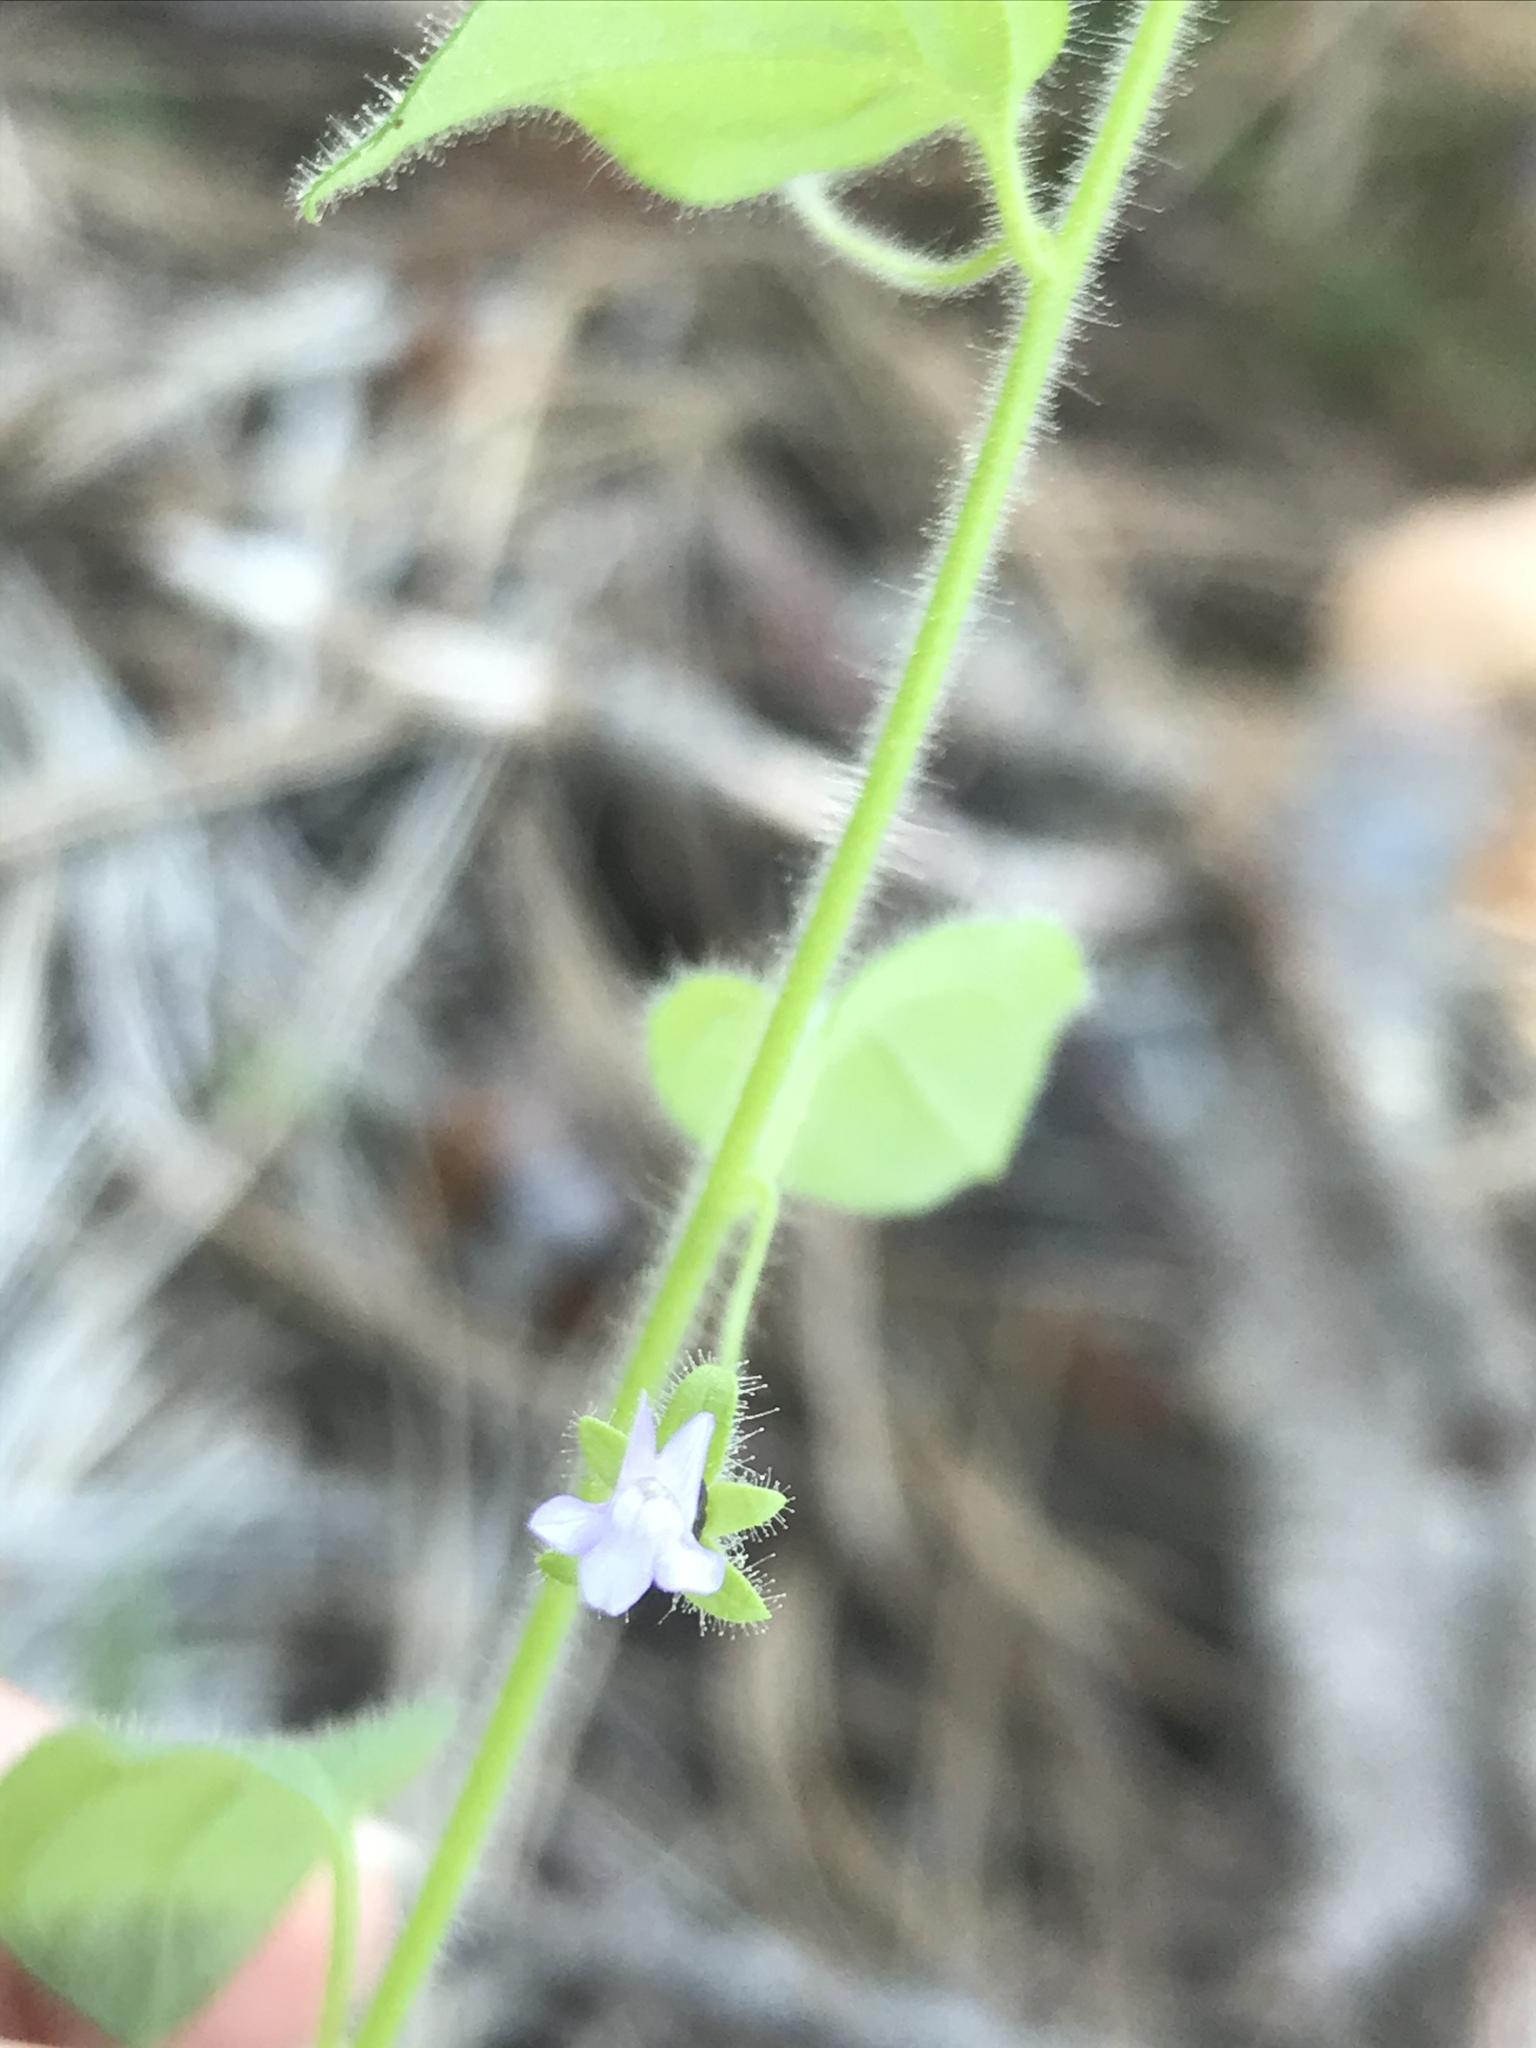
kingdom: Plantae
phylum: Tracheophyta
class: Magnoliopsida
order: Lamiales
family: Plantaginaceae
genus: Sairocarpus
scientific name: Sairocarpus nuttallianus
